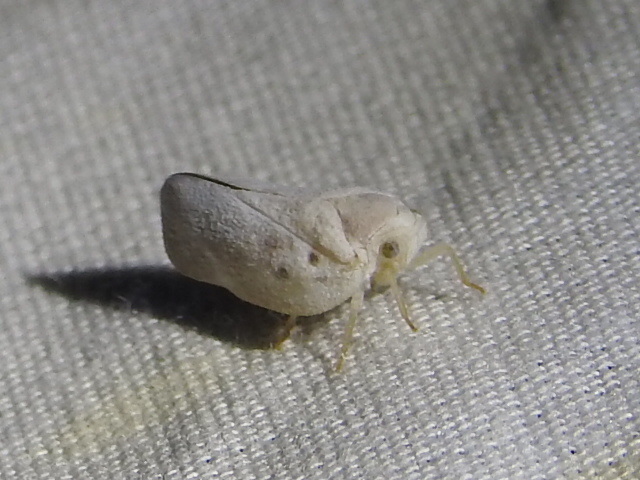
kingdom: Animalia
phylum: Arthropoda
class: Insecta
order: Hemiptera
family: Flatidae
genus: Metcalfa
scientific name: Metcalfa pruinosa
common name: Citrus flatid planthopper
